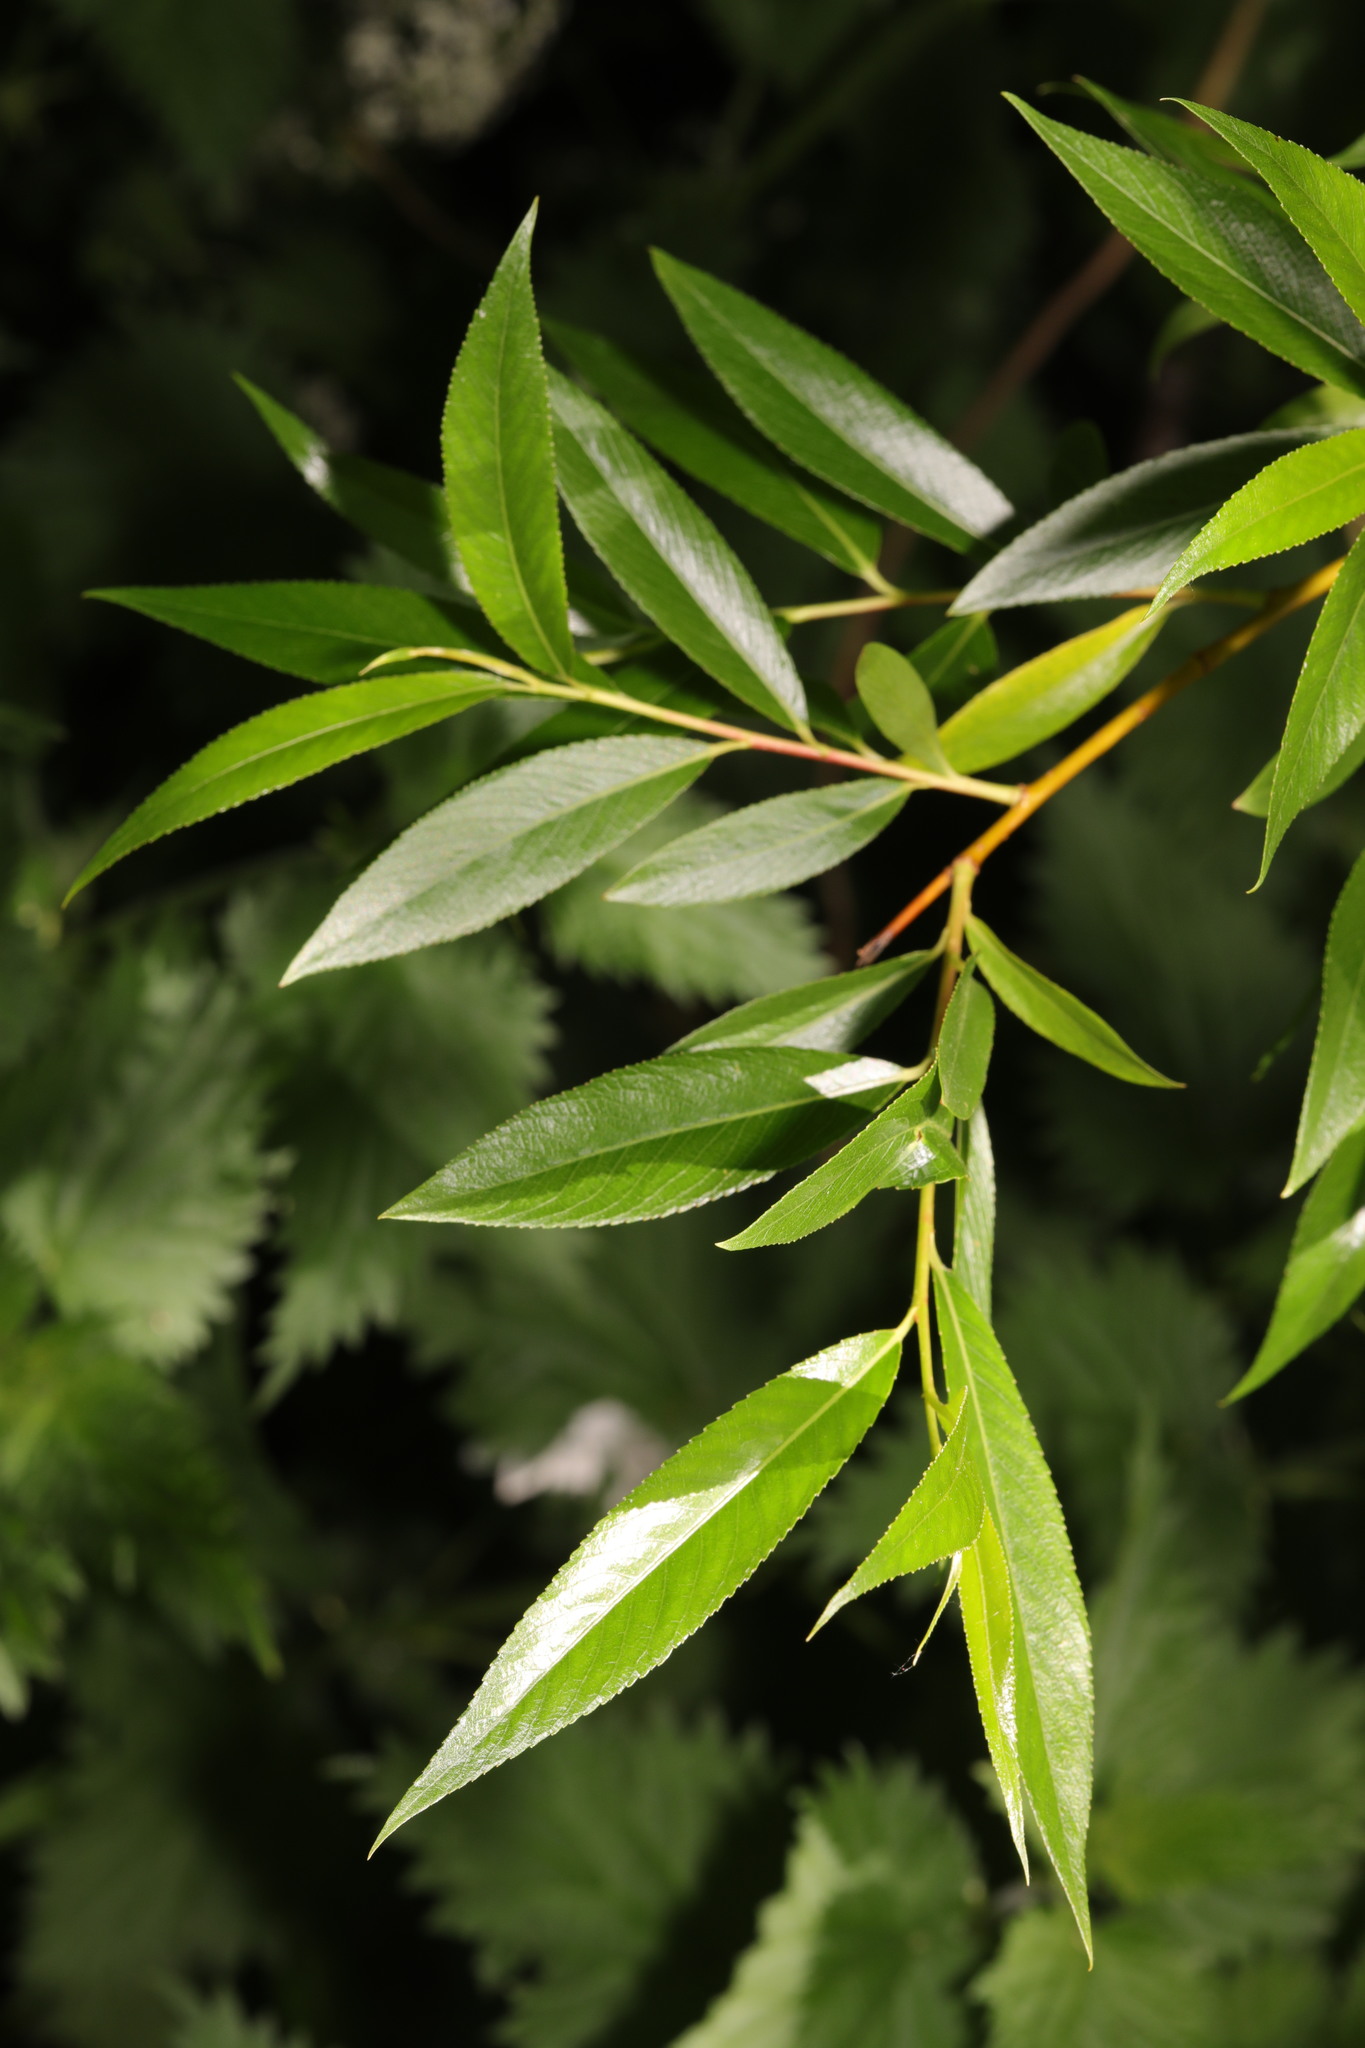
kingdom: Plantae
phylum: Tracheophyta
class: Magnoliopsida
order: Malpighiales
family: Salicaceae
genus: Salix
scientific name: Salix fragilis
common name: Crack willow
